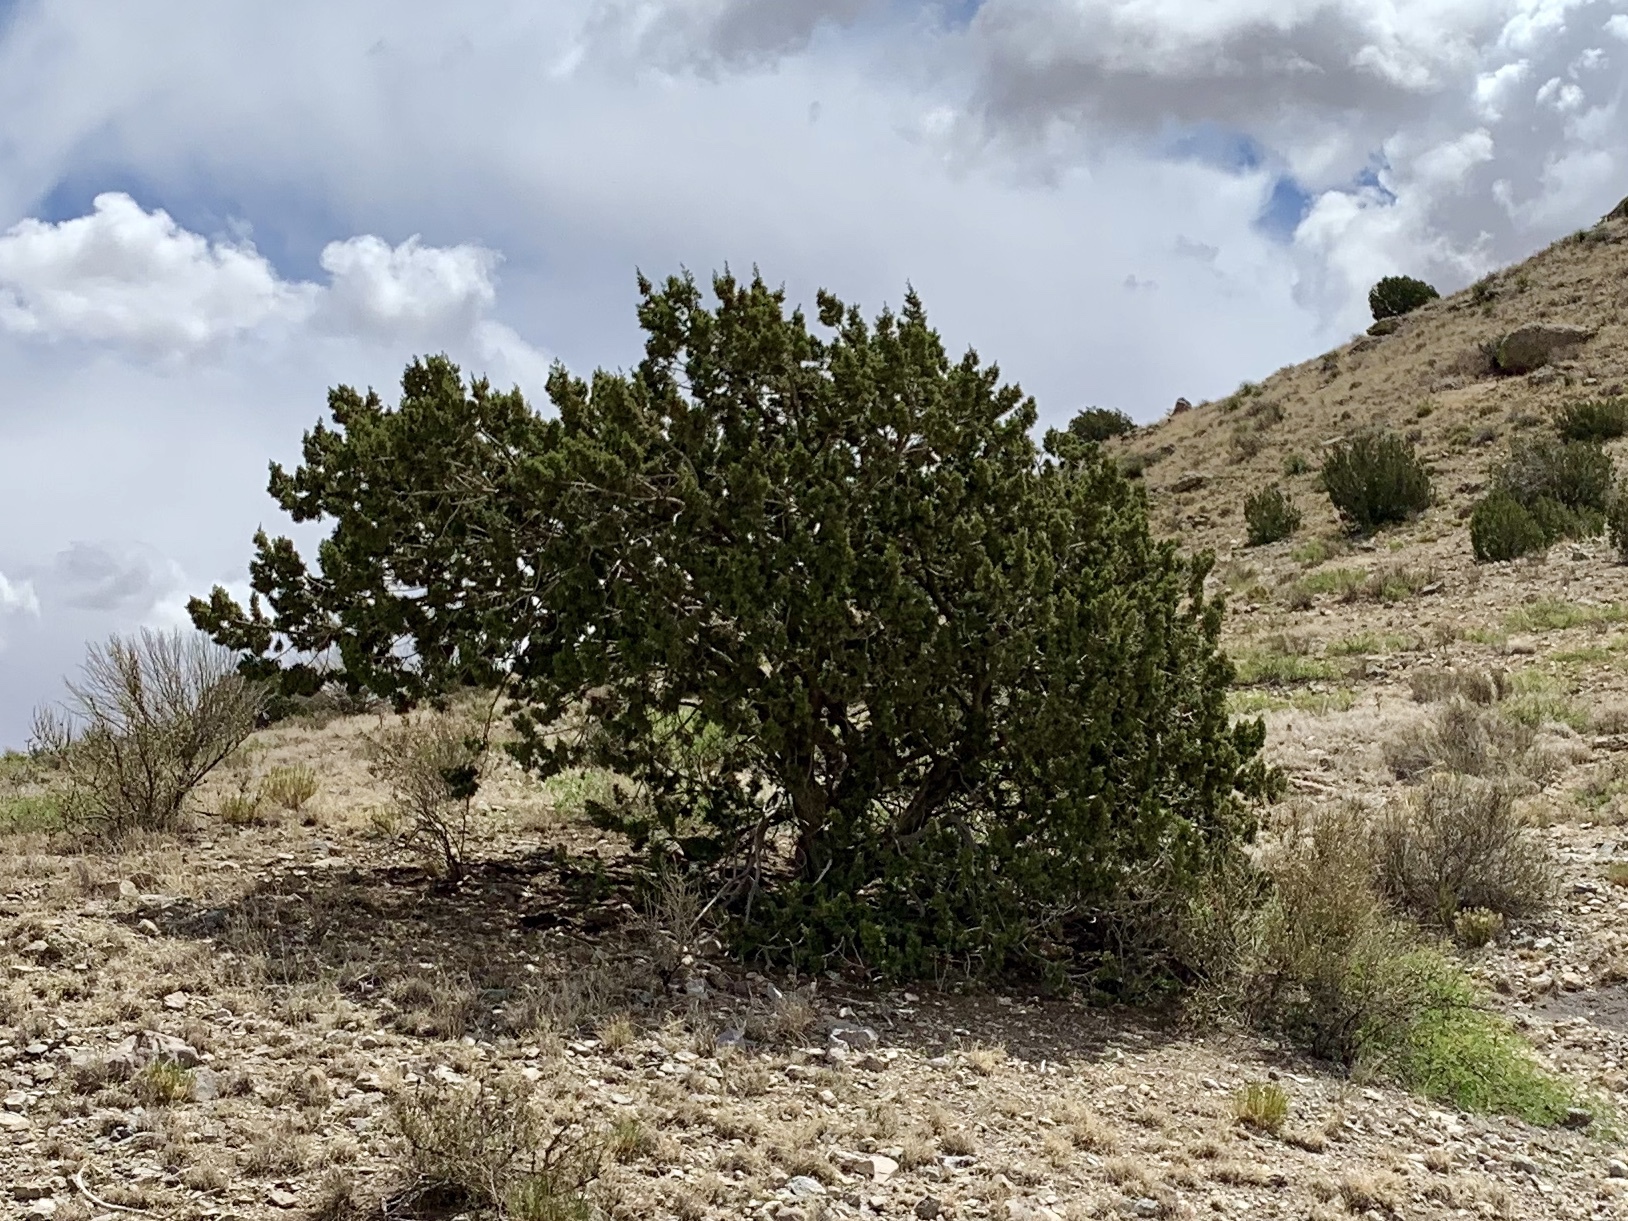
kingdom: Plantae
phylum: Tracheophyta
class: Pinopsida
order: Pinales
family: Cupressaceae
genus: Juniperus
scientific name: Juniperus monosperma
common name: One-seed juniper
